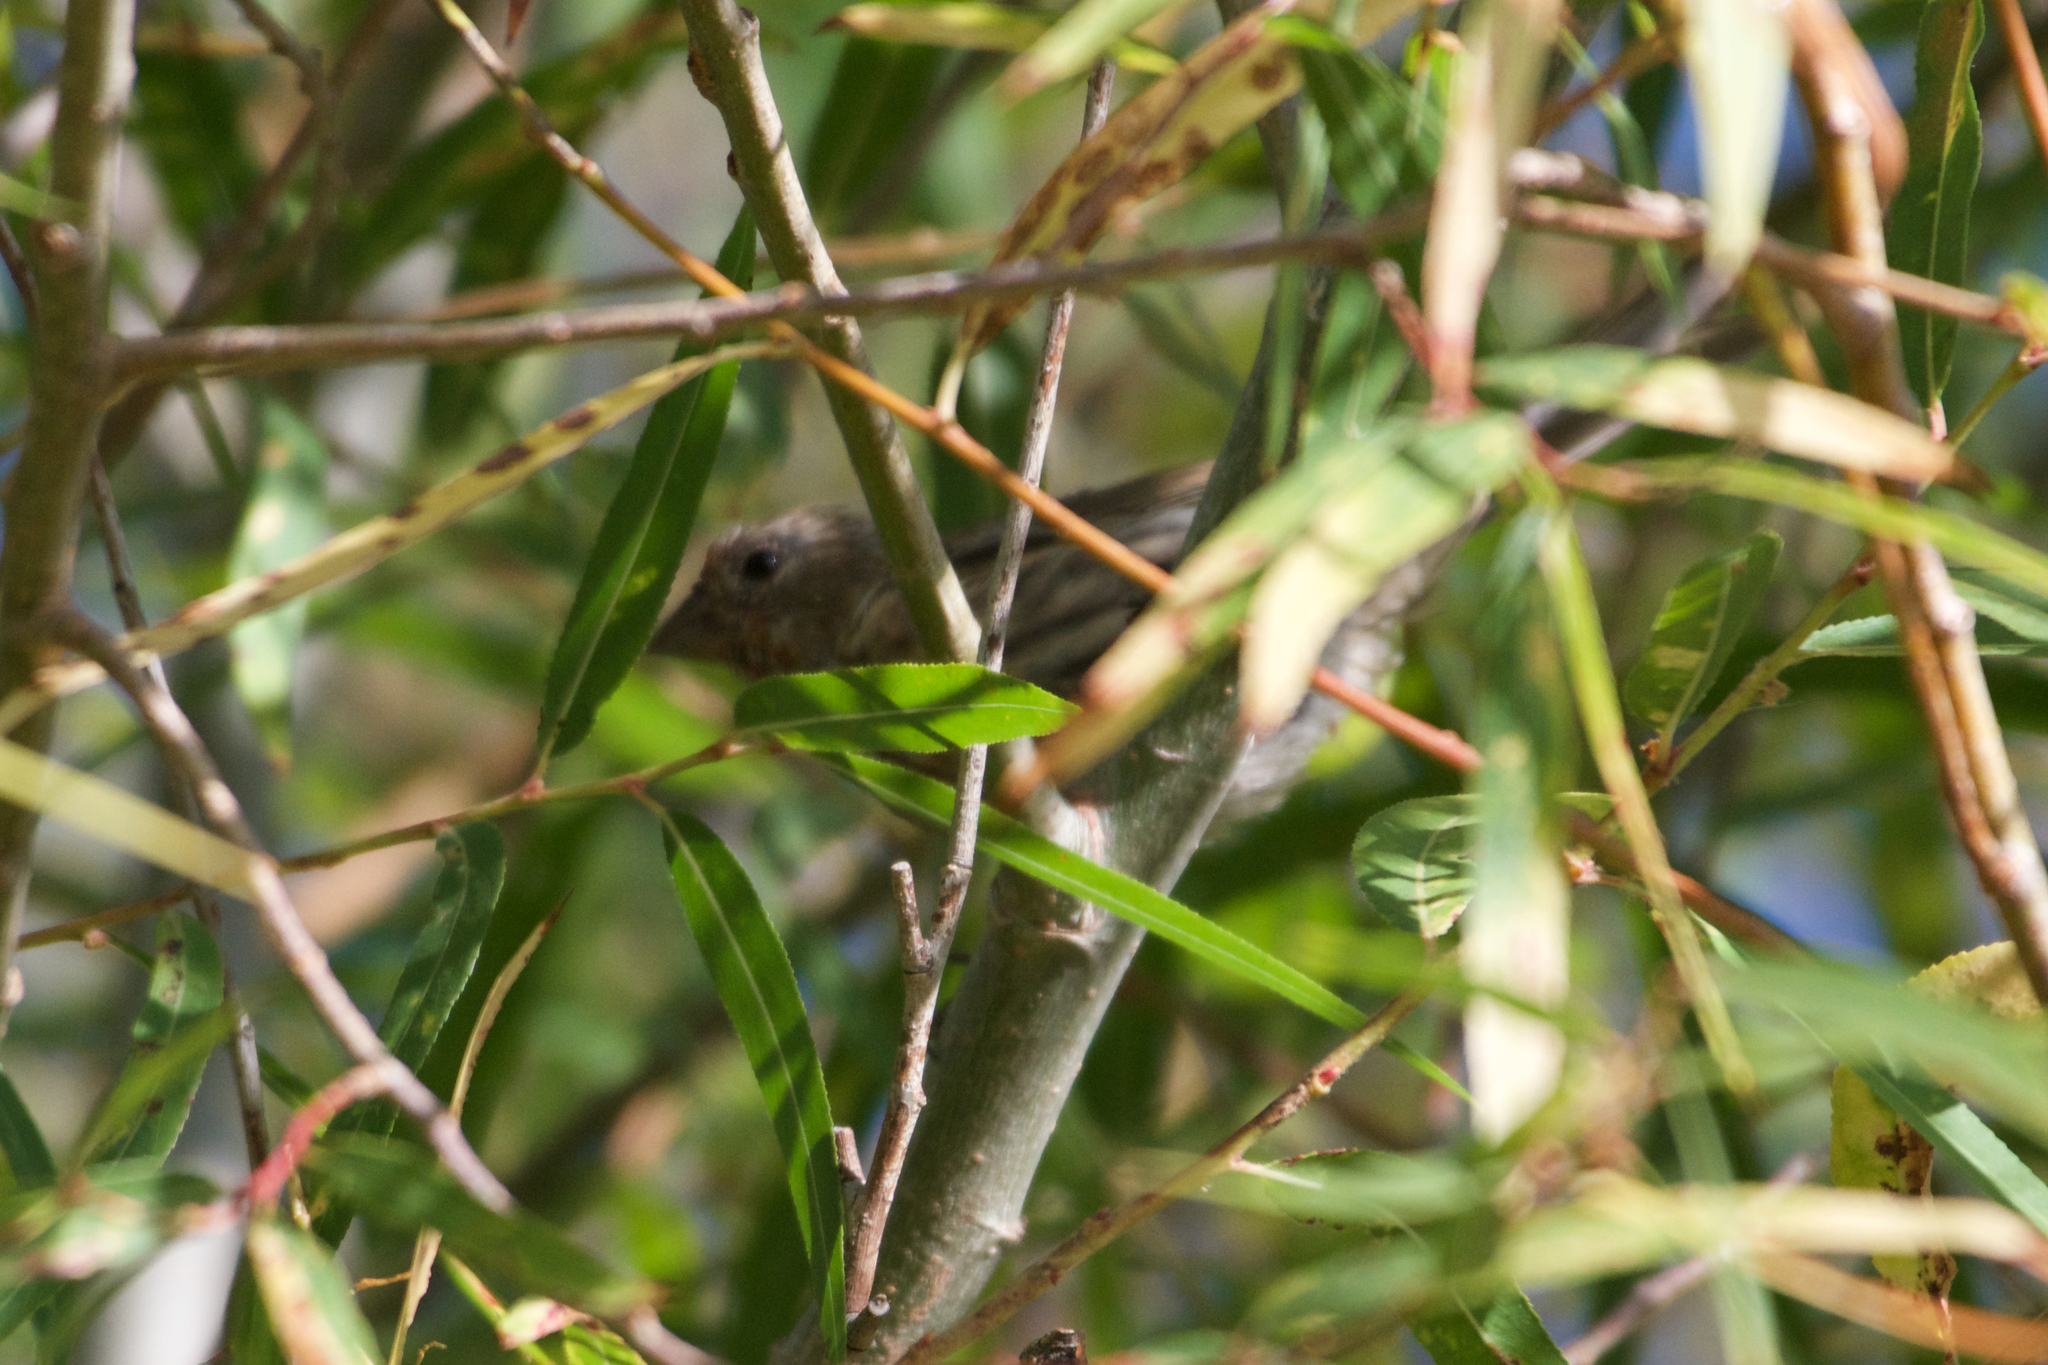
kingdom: Animalia
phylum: Chordata
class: Aves
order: Passeriformes
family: Fringillidae
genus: Haemorhous
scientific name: Haemorhous mexicanus
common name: House finch
